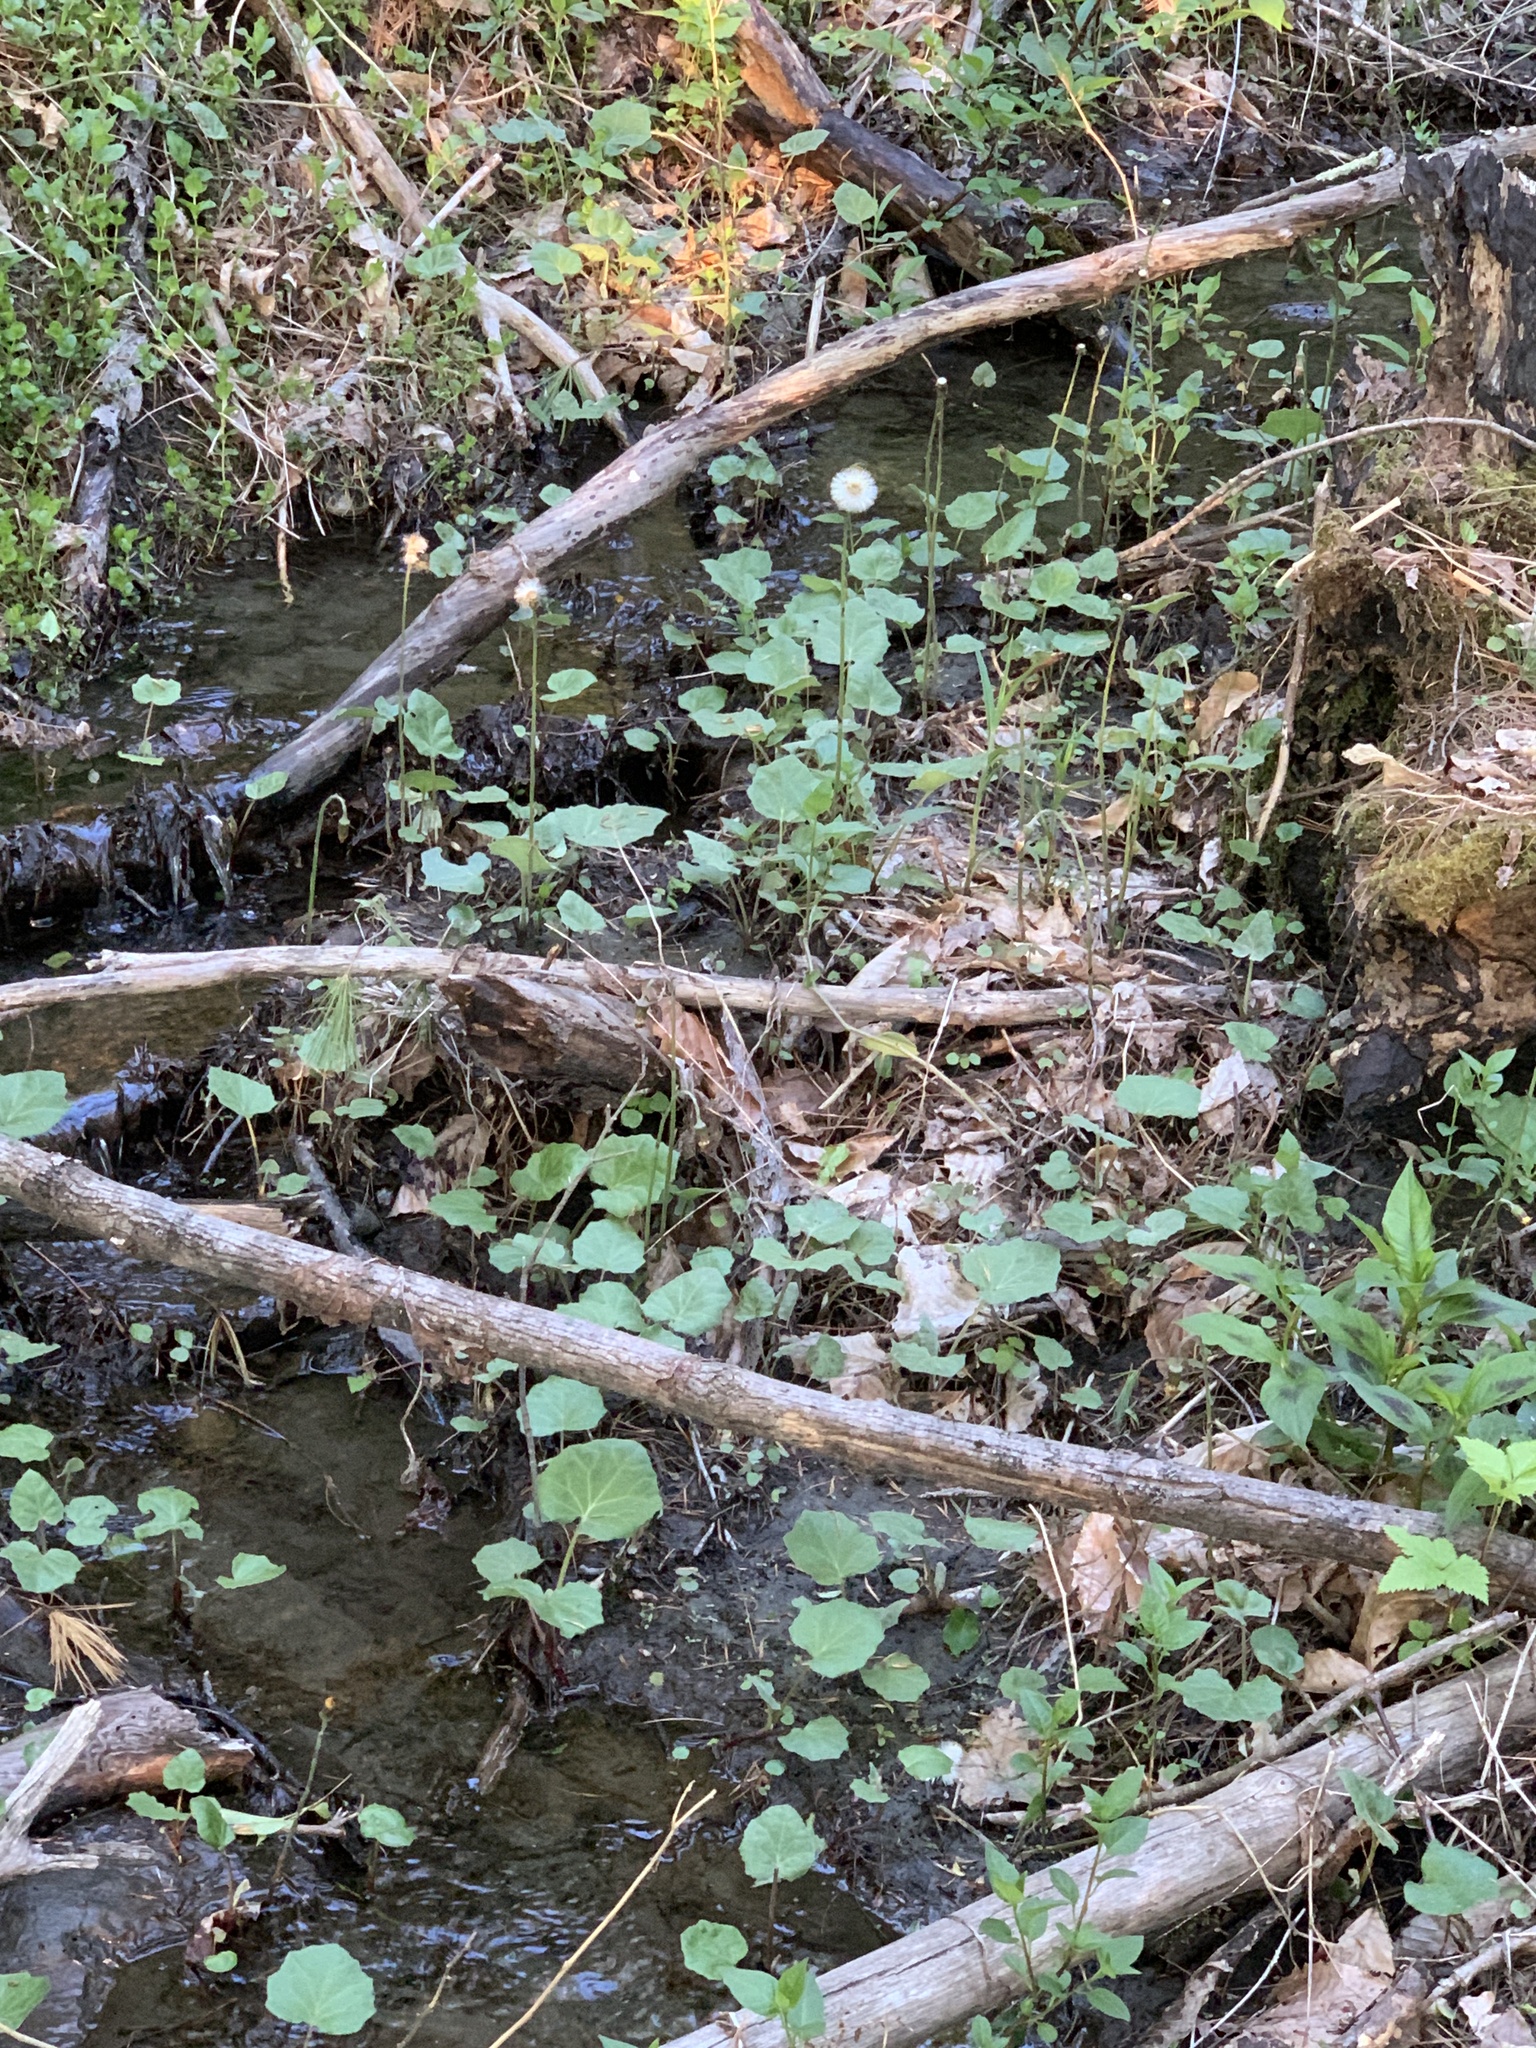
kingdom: Plantae
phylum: Tracheophyta
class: Magnoliopsida
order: Asterales
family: Asteraceae
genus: Tussilago
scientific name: Tussilago farfara
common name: Coltsfoot
